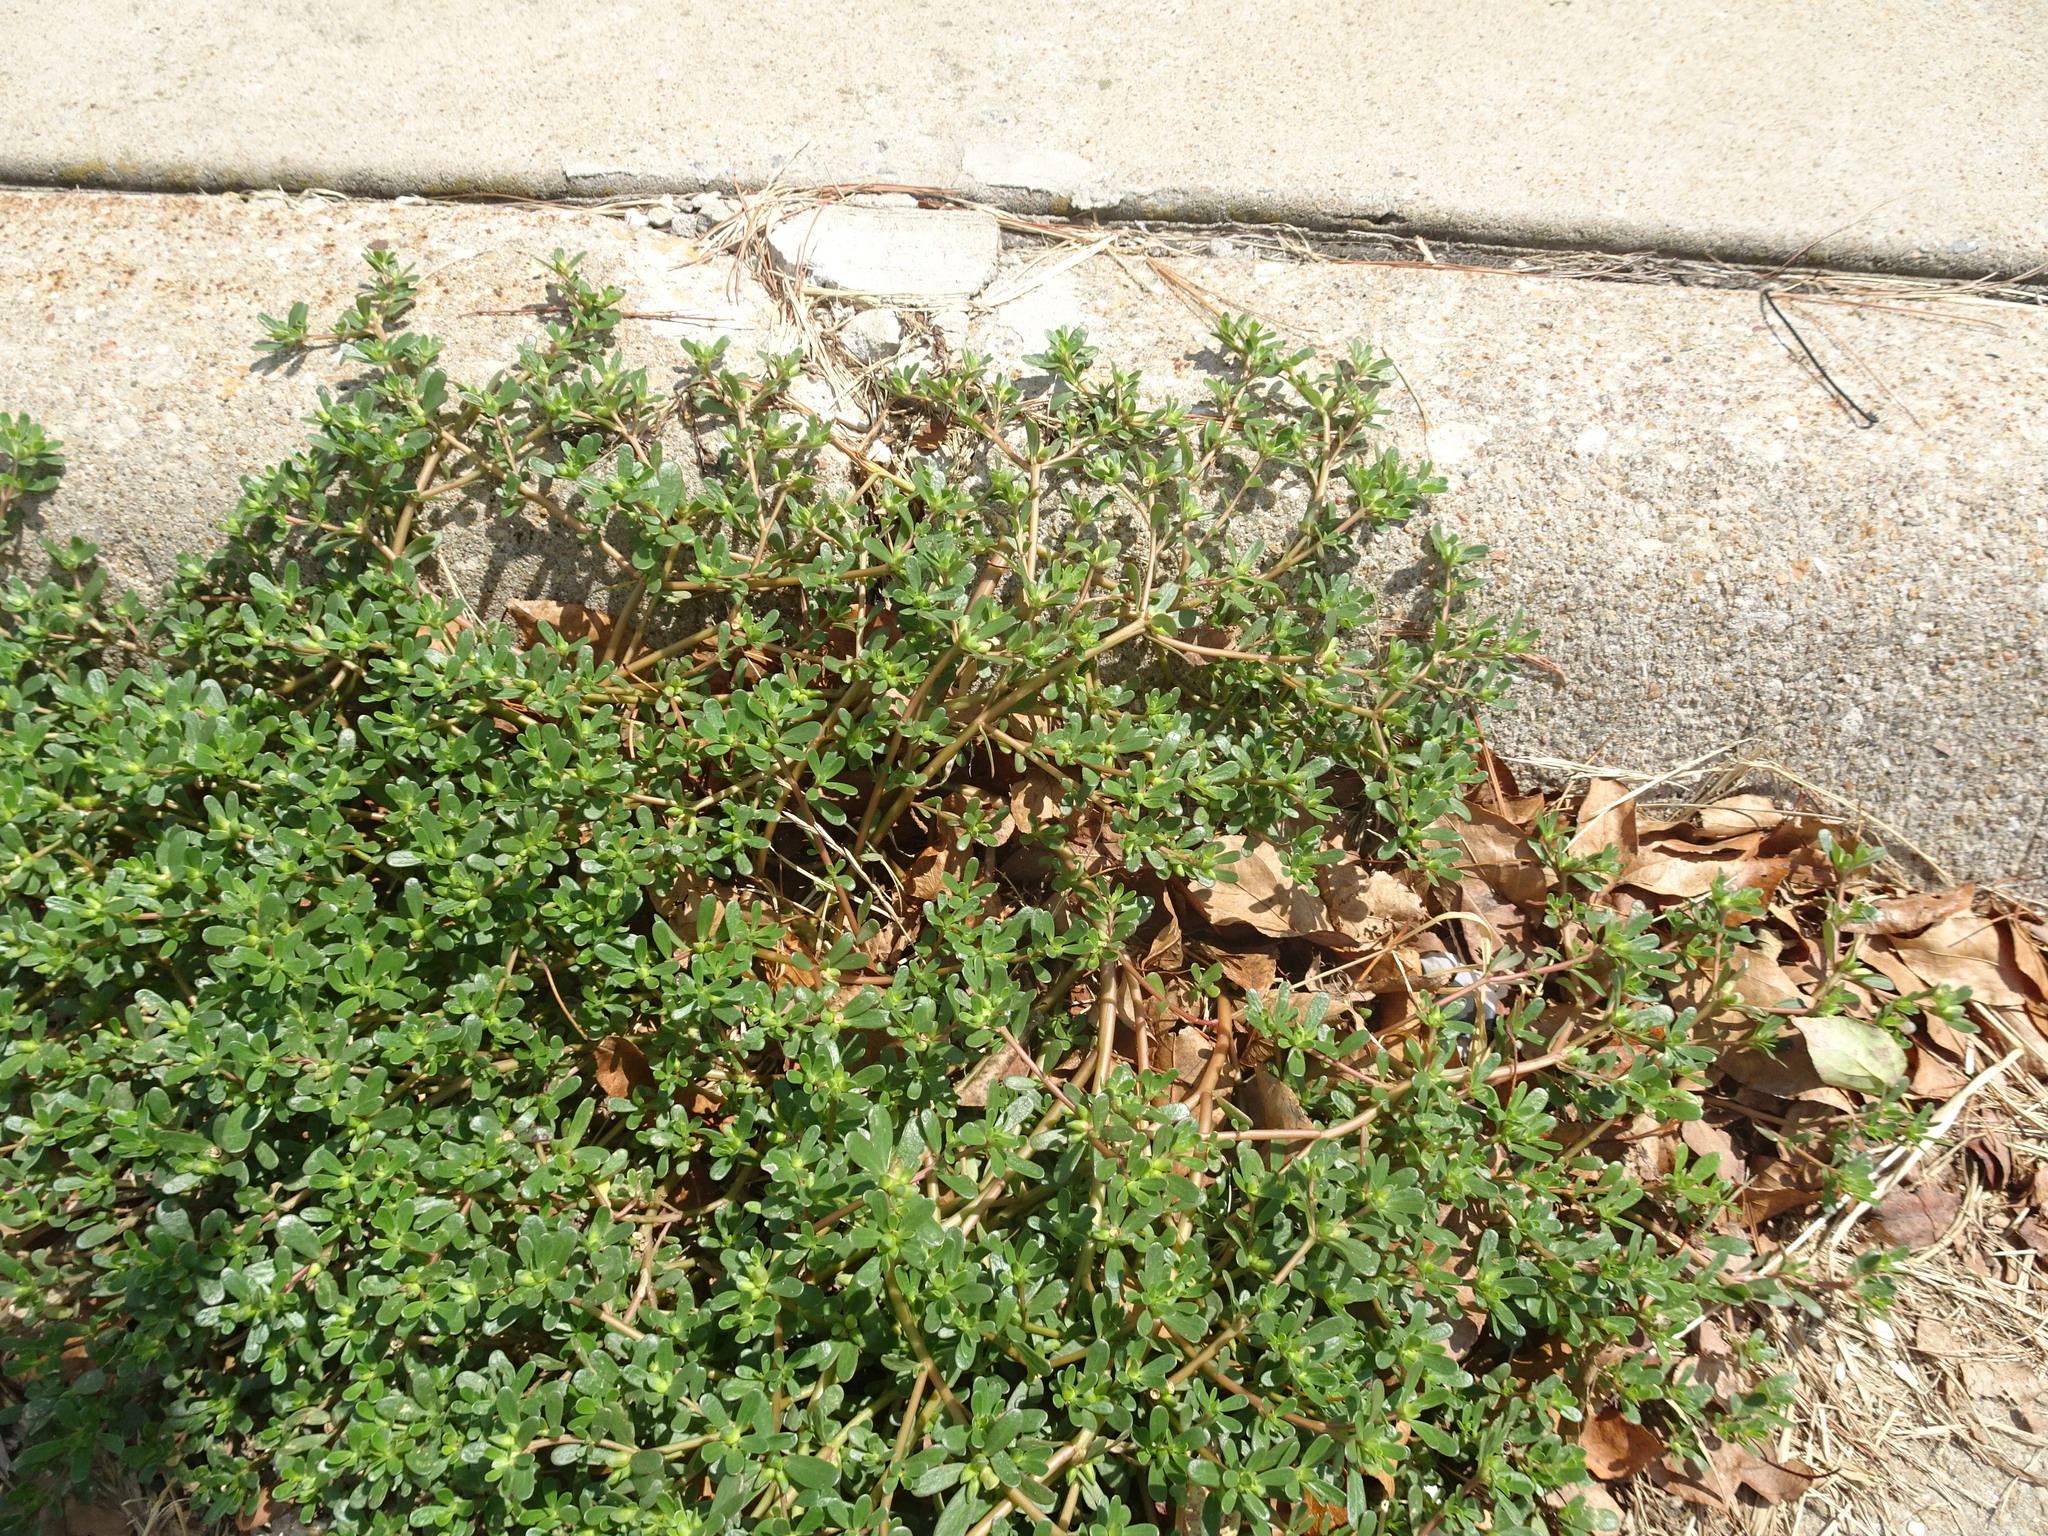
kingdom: Plantae
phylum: Tracheophyta
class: Magnoliopsida
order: Caryophyllales
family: Portulacaceae
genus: Portulaca
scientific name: Portulaca oleracea
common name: Common purslane
